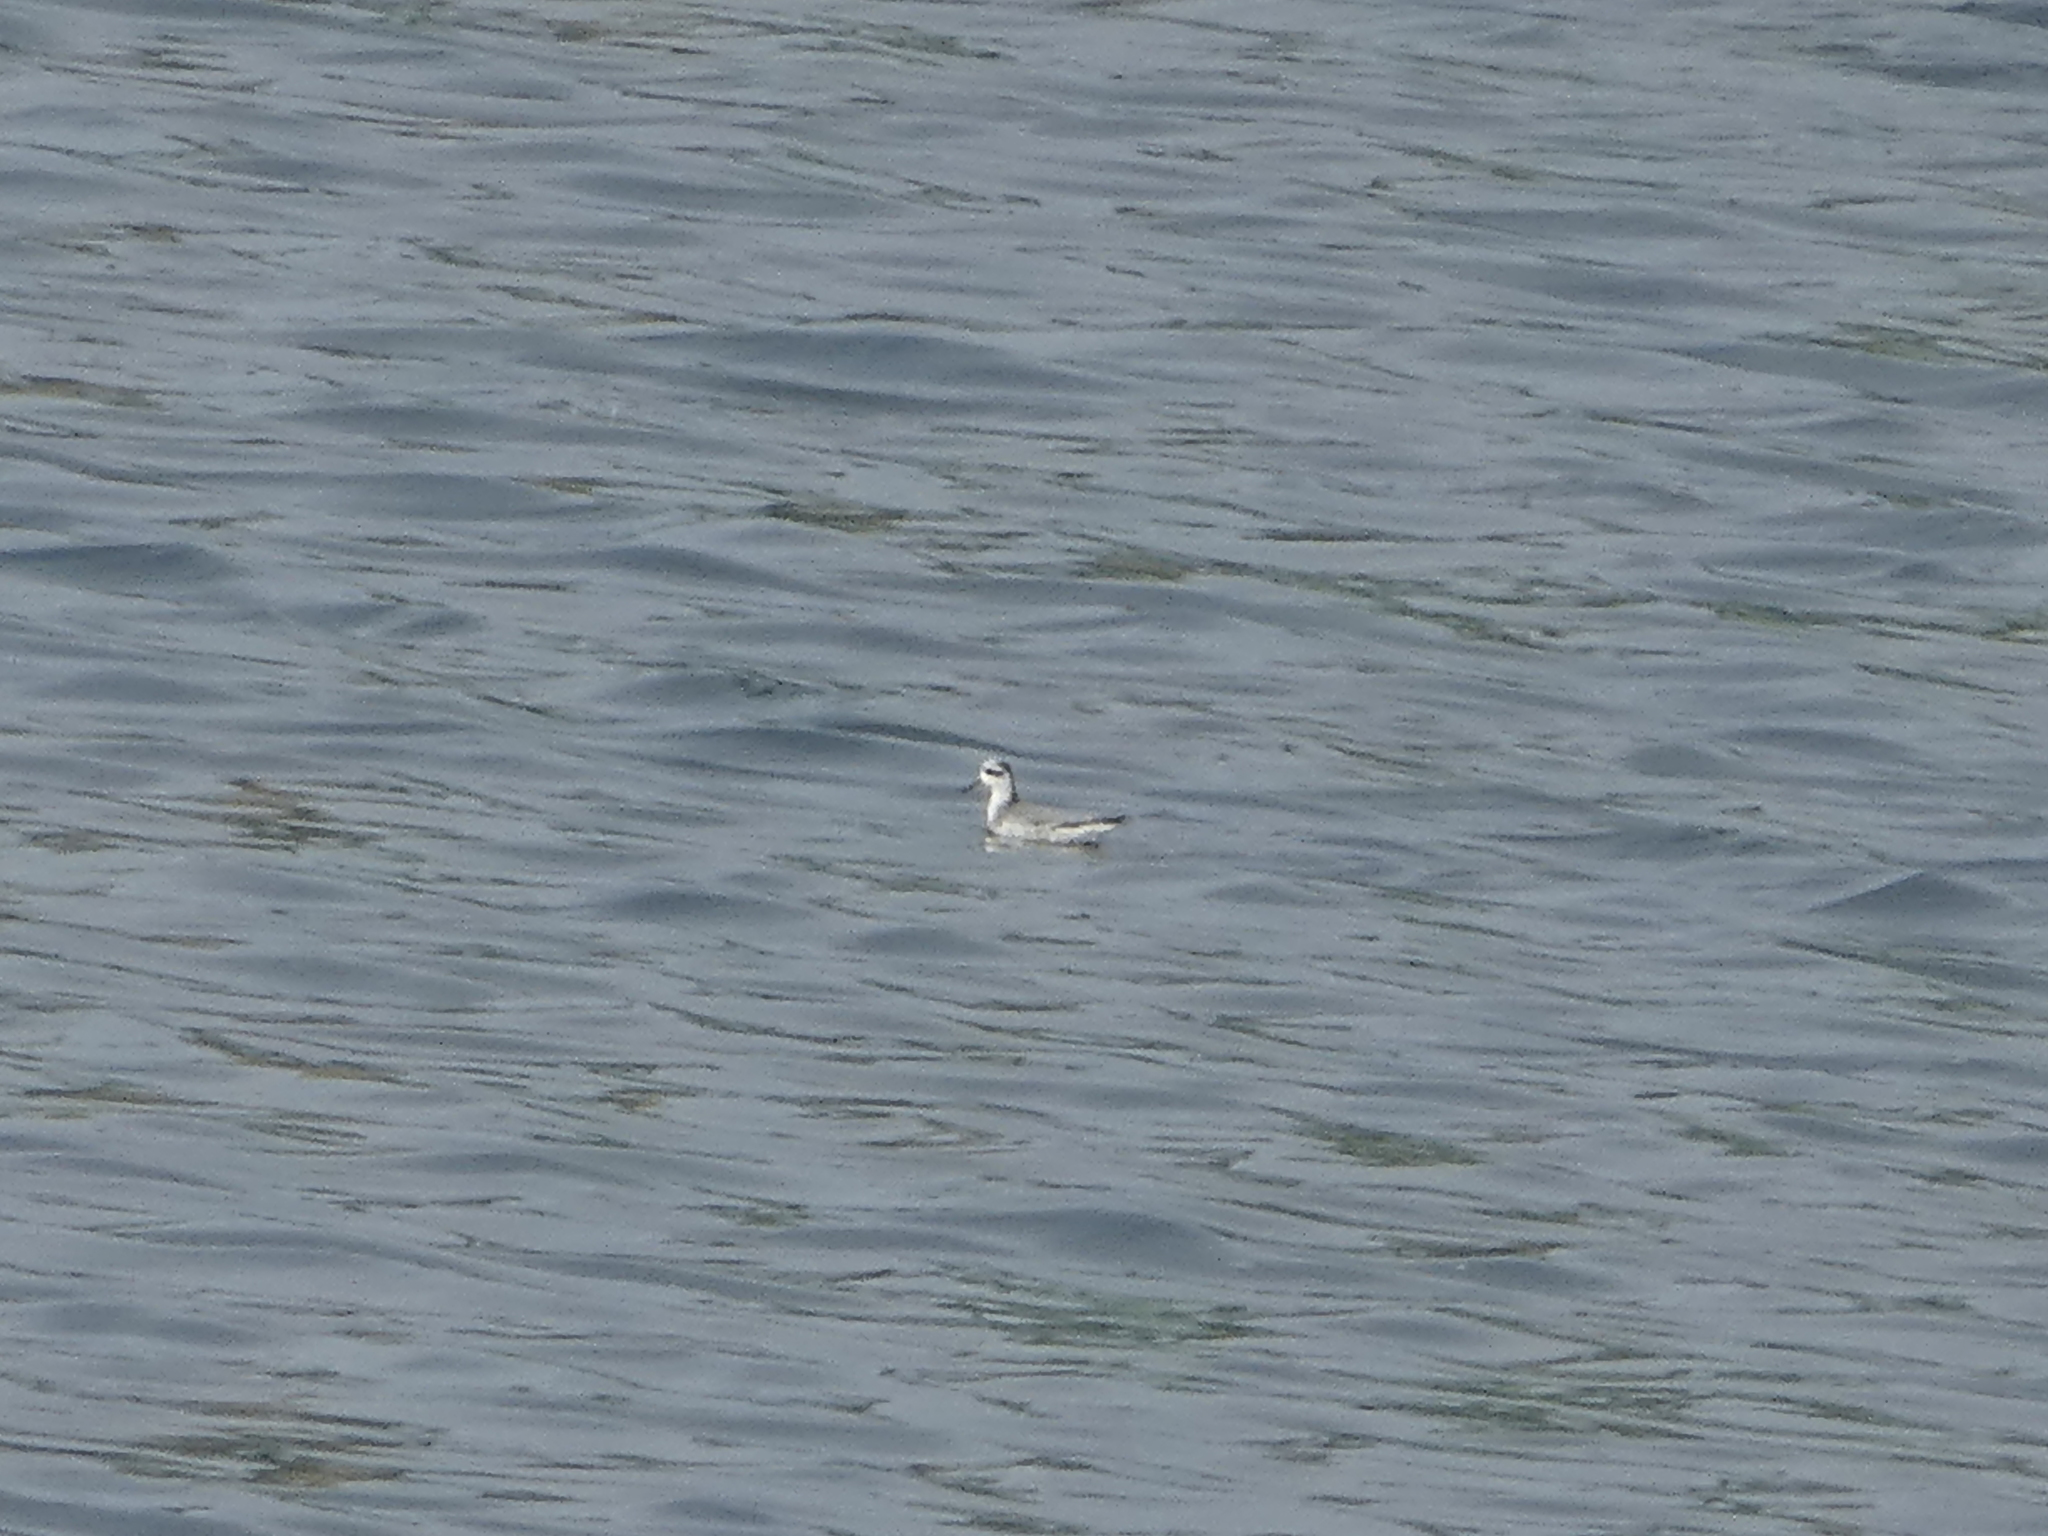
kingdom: Animalia
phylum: Chordata
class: Aves
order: Charadriiformes
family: Scolopacidae
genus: Phalaropus
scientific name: Phalaropus fulicarius
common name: Red phalarope
